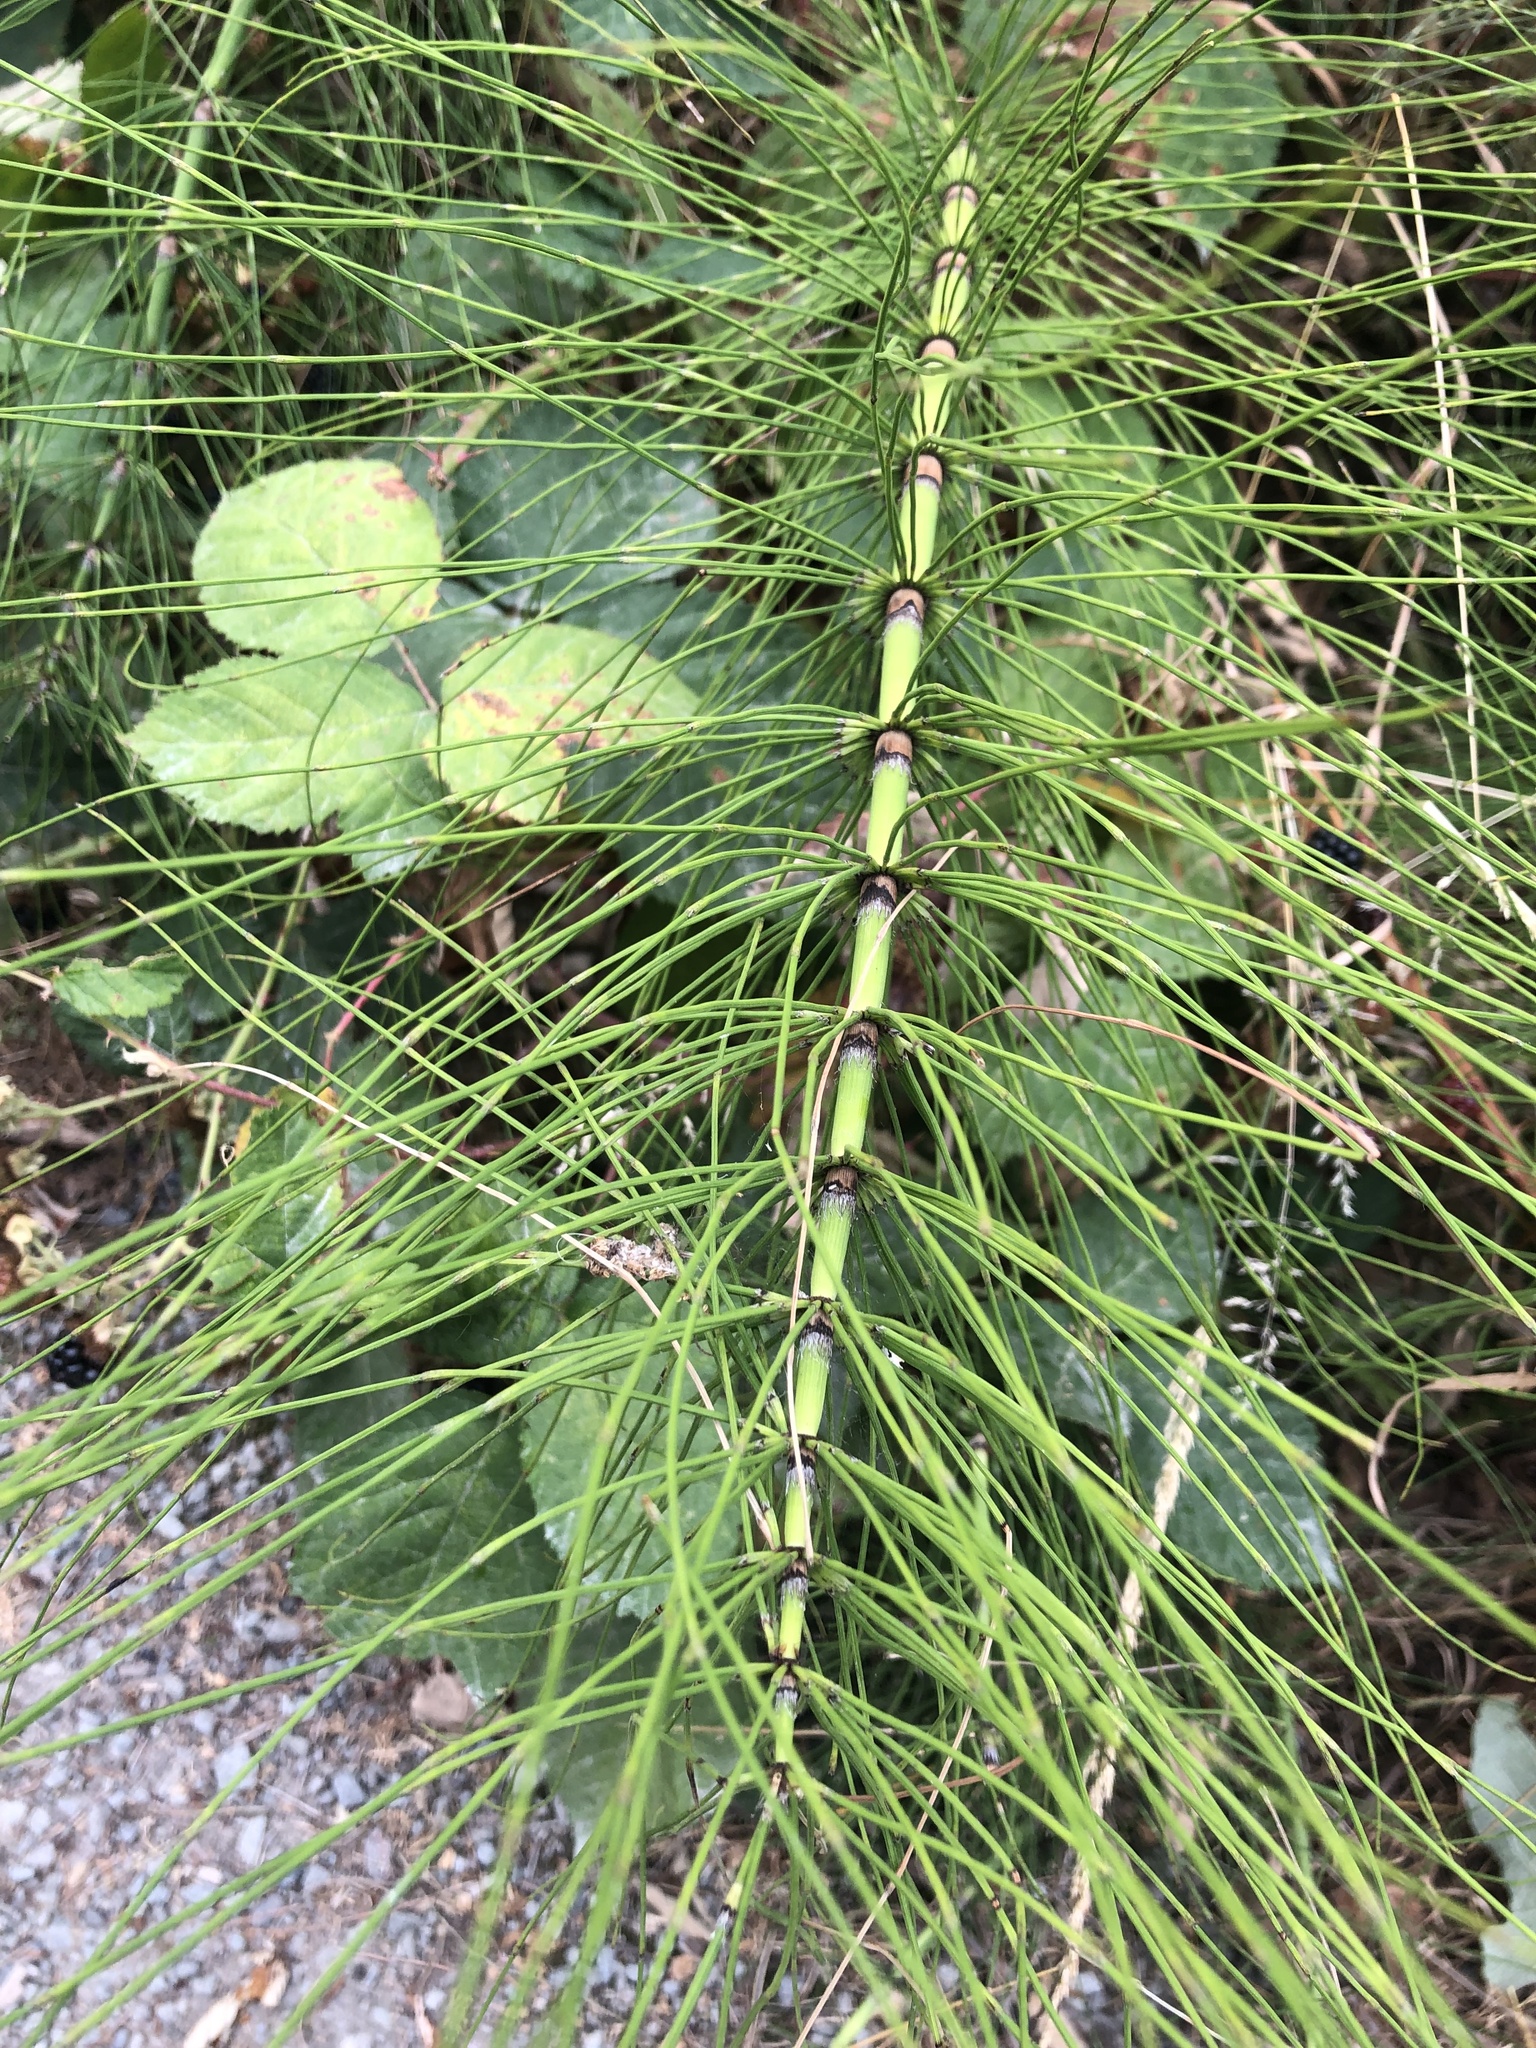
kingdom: Plantae
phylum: Tracheophyta
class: Polypodiopsida
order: Equisetales
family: Equisetaceae
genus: Equisetum
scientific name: Equisetum telmateia
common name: Great horsetail
